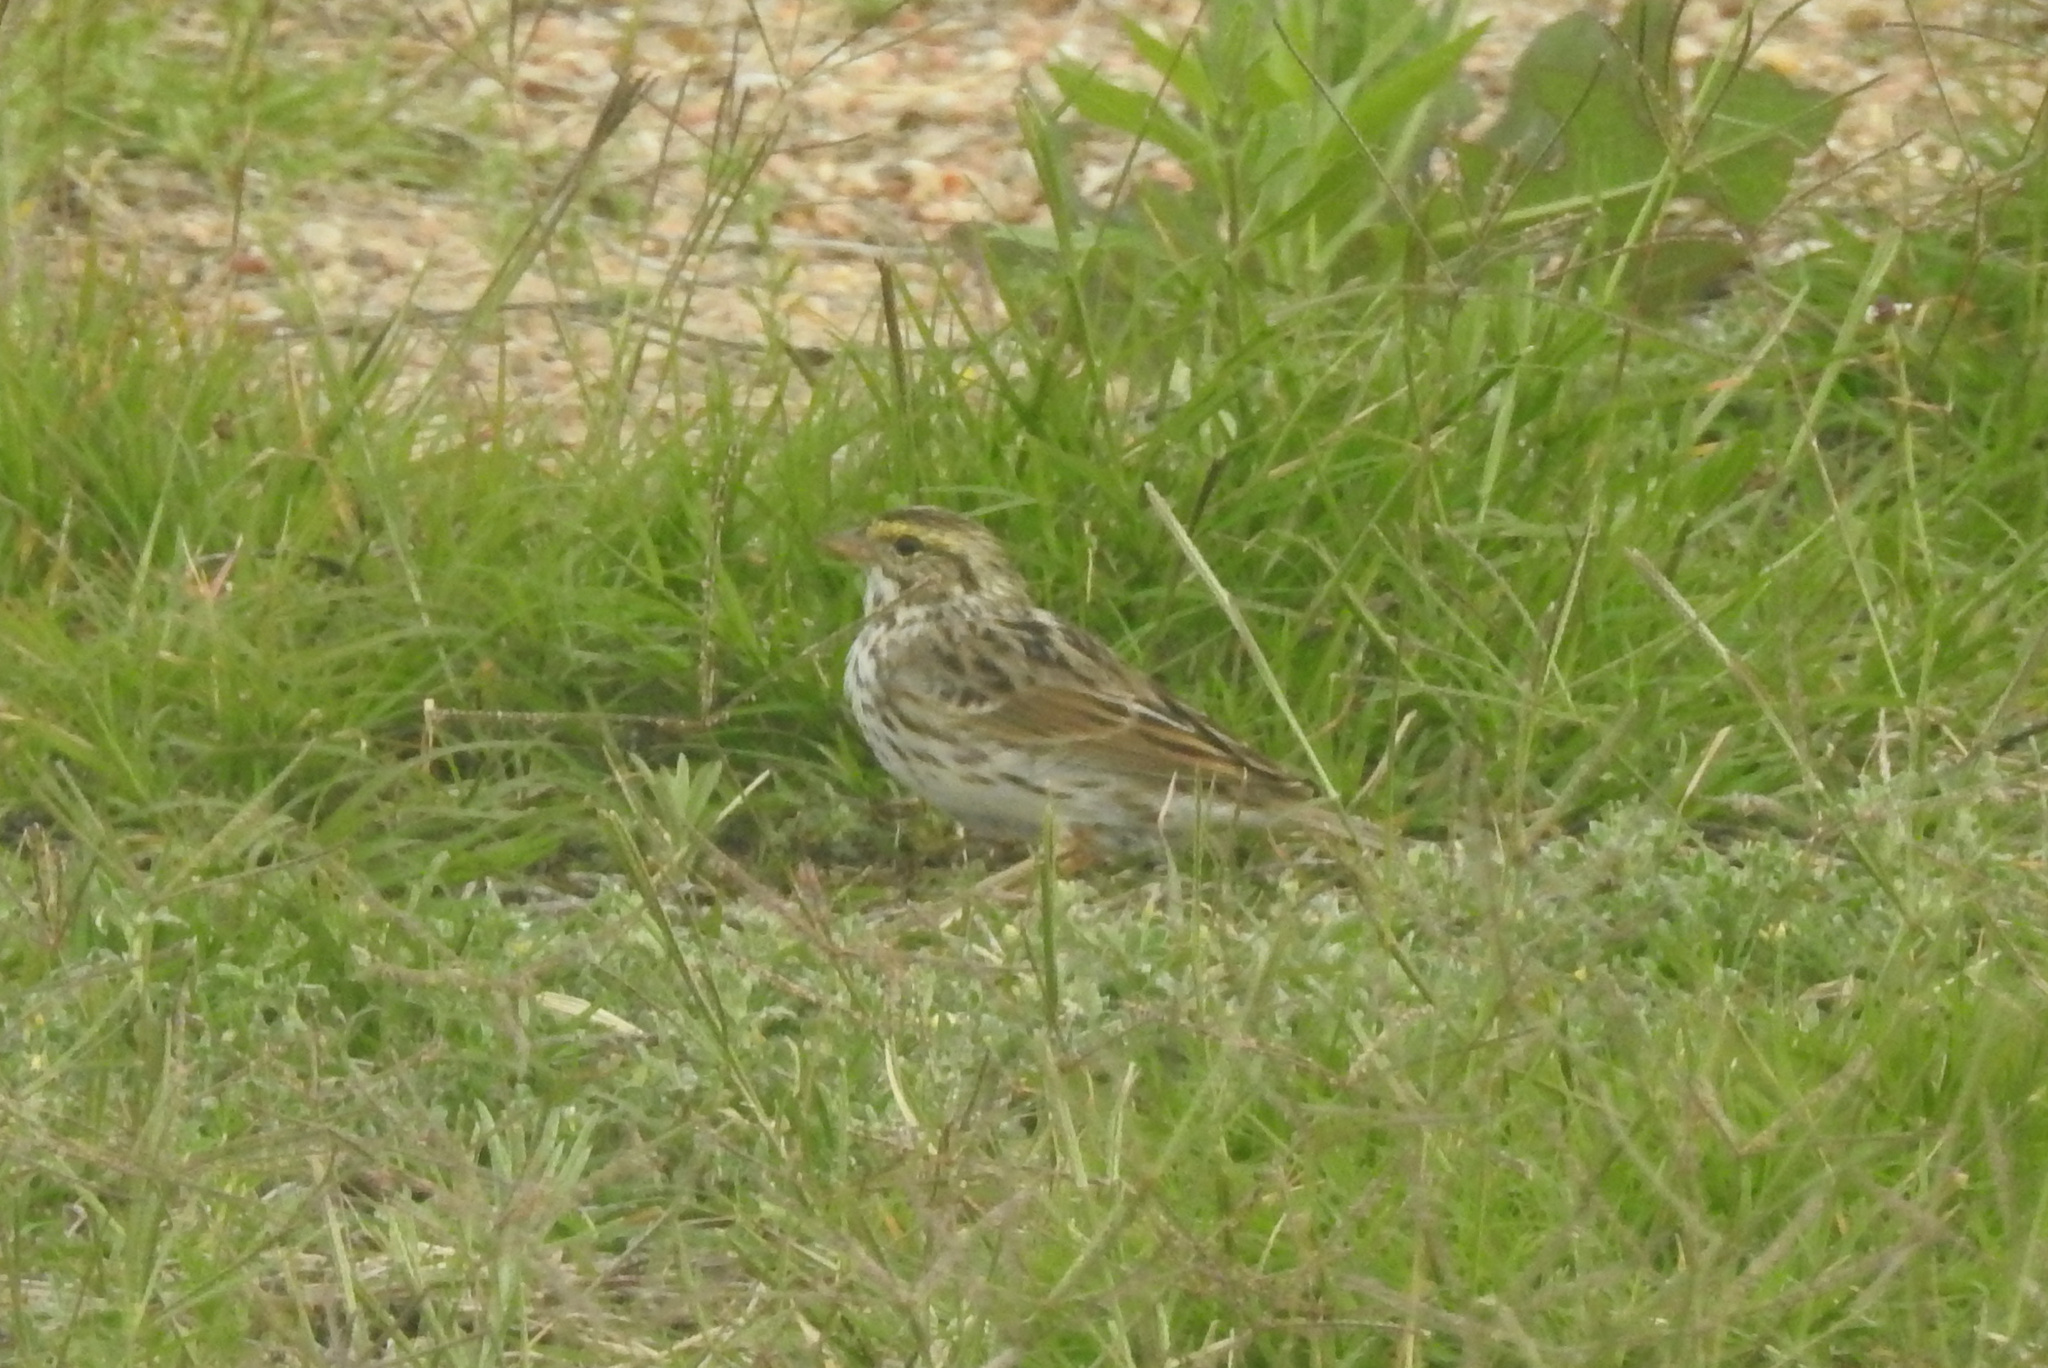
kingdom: Animalia
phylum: Chordata
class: Aves
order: Passeriformes
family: Passerellidae
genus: Passerculus
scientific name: Passerculus sandwichensis
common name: Savannah sparrow
